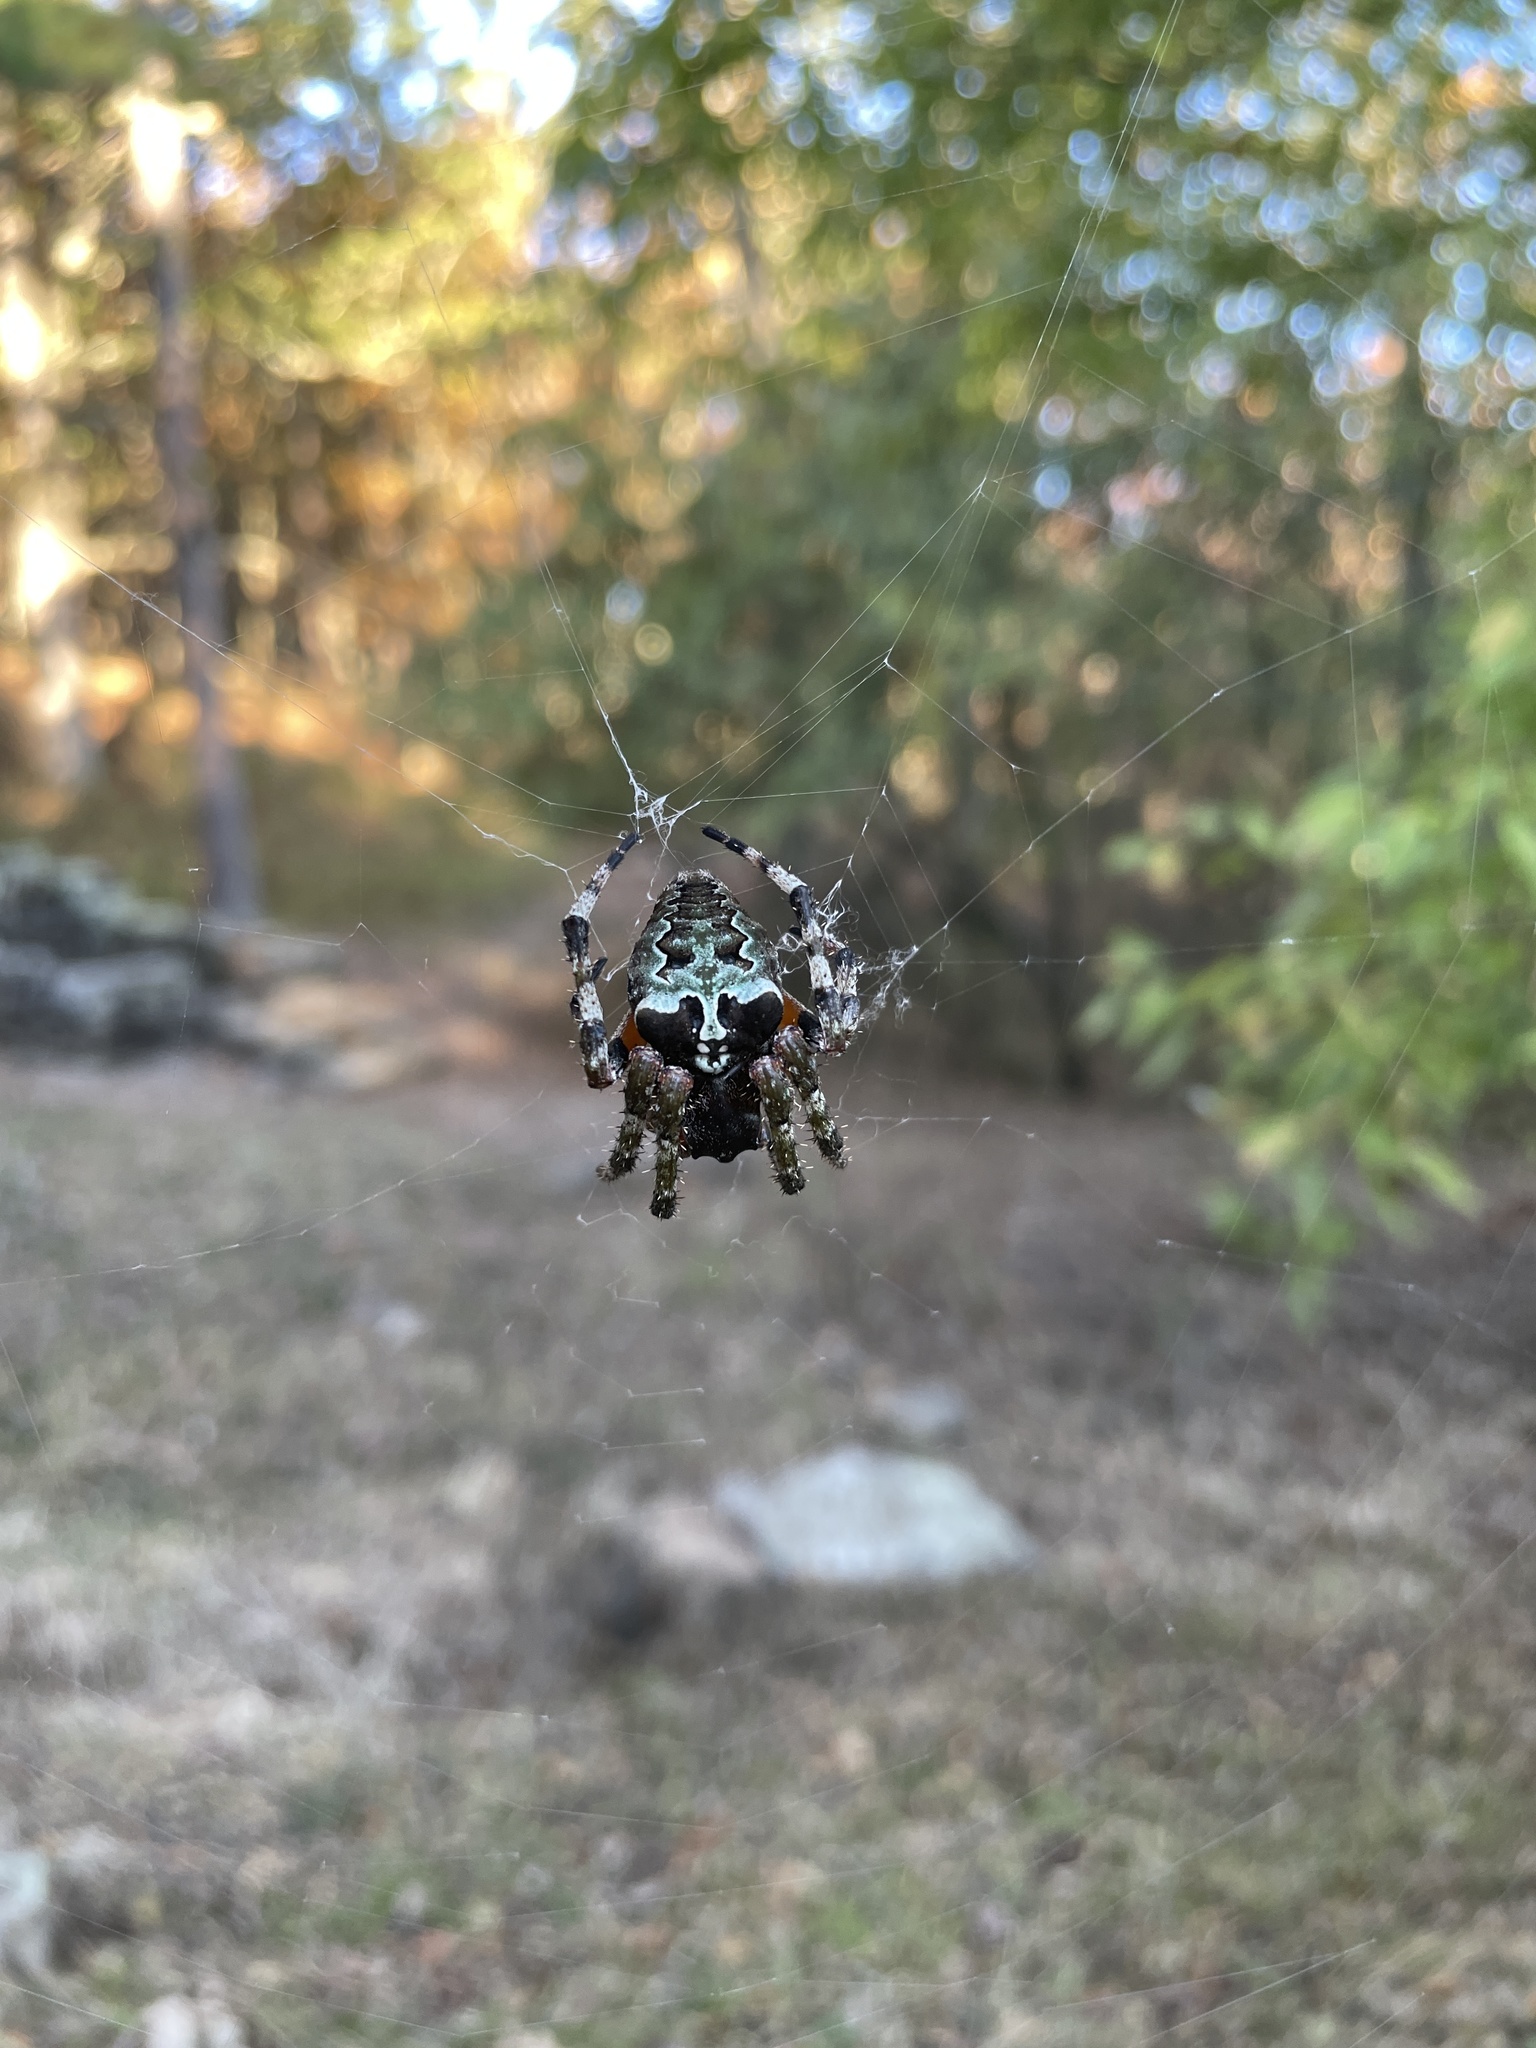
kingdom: Animalia
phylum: Arthropoda
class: Arachnida
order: Araneae
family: Araneidae
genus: Araneus
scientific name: Araneus bicentenarius
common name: Giant lichen orbweaver
